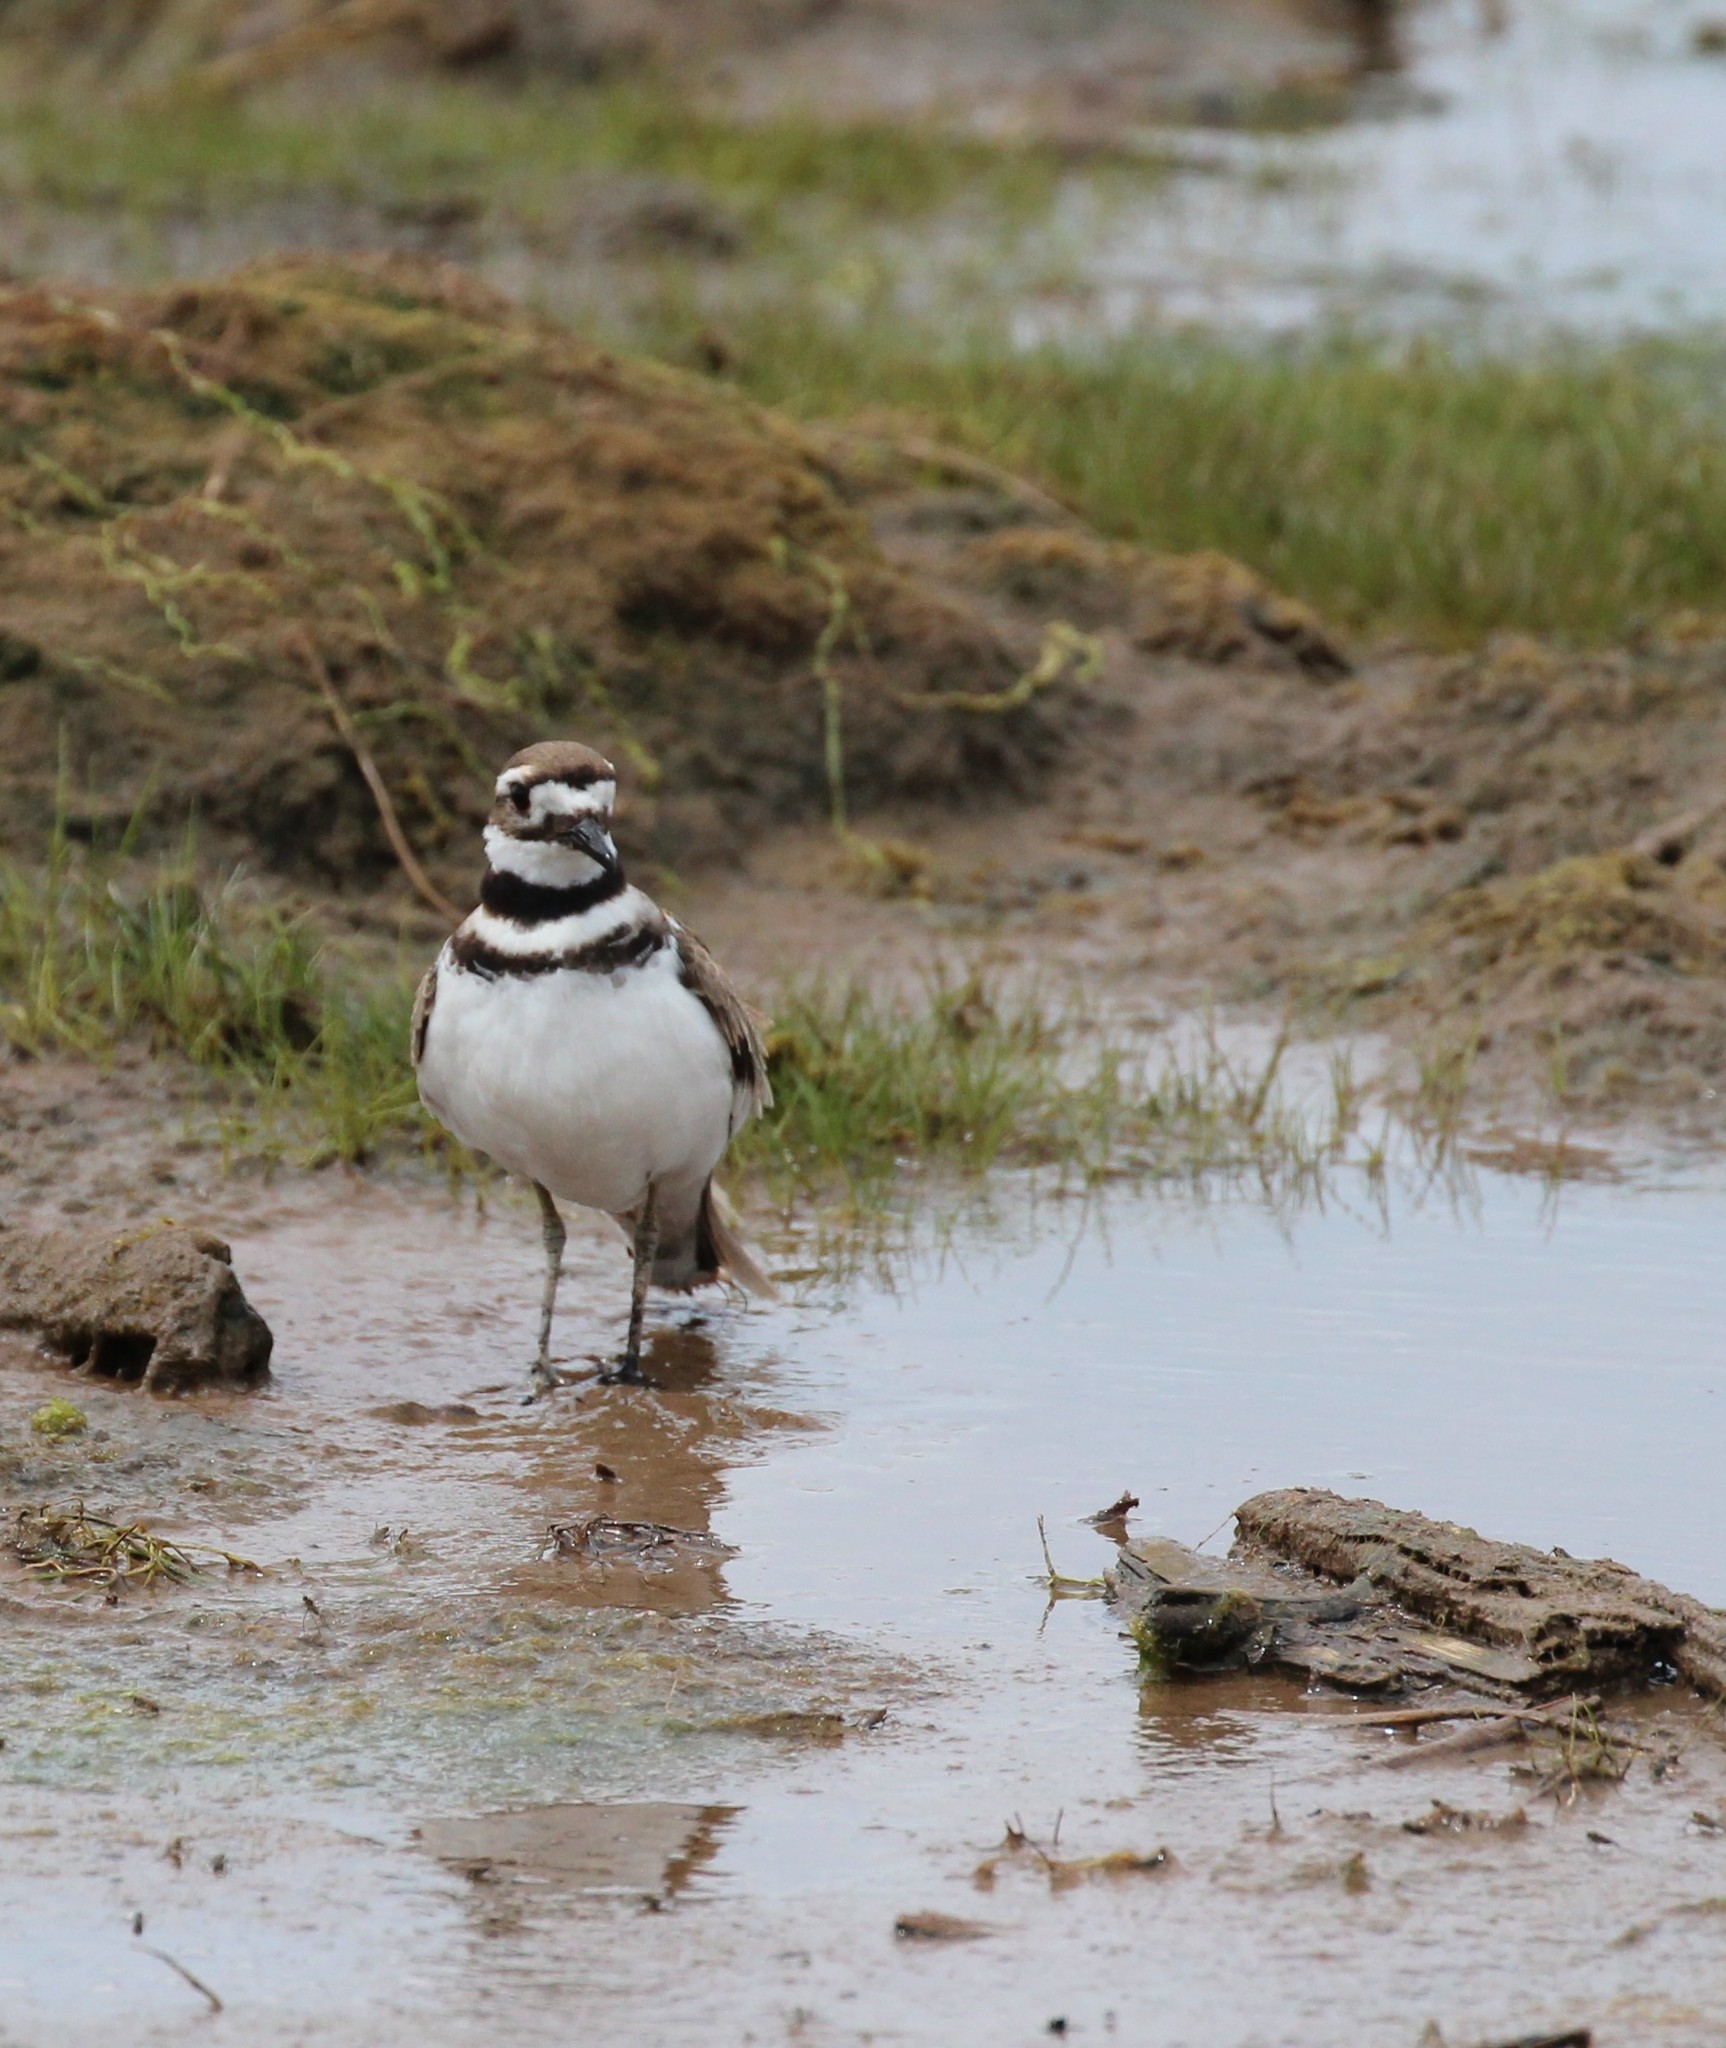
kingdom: Animalia
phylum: Chordata
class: Aves
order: Charadriiformes
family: Charadriidae
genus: Charadrius
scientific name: Charadrius vociferus
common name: Killdeer
